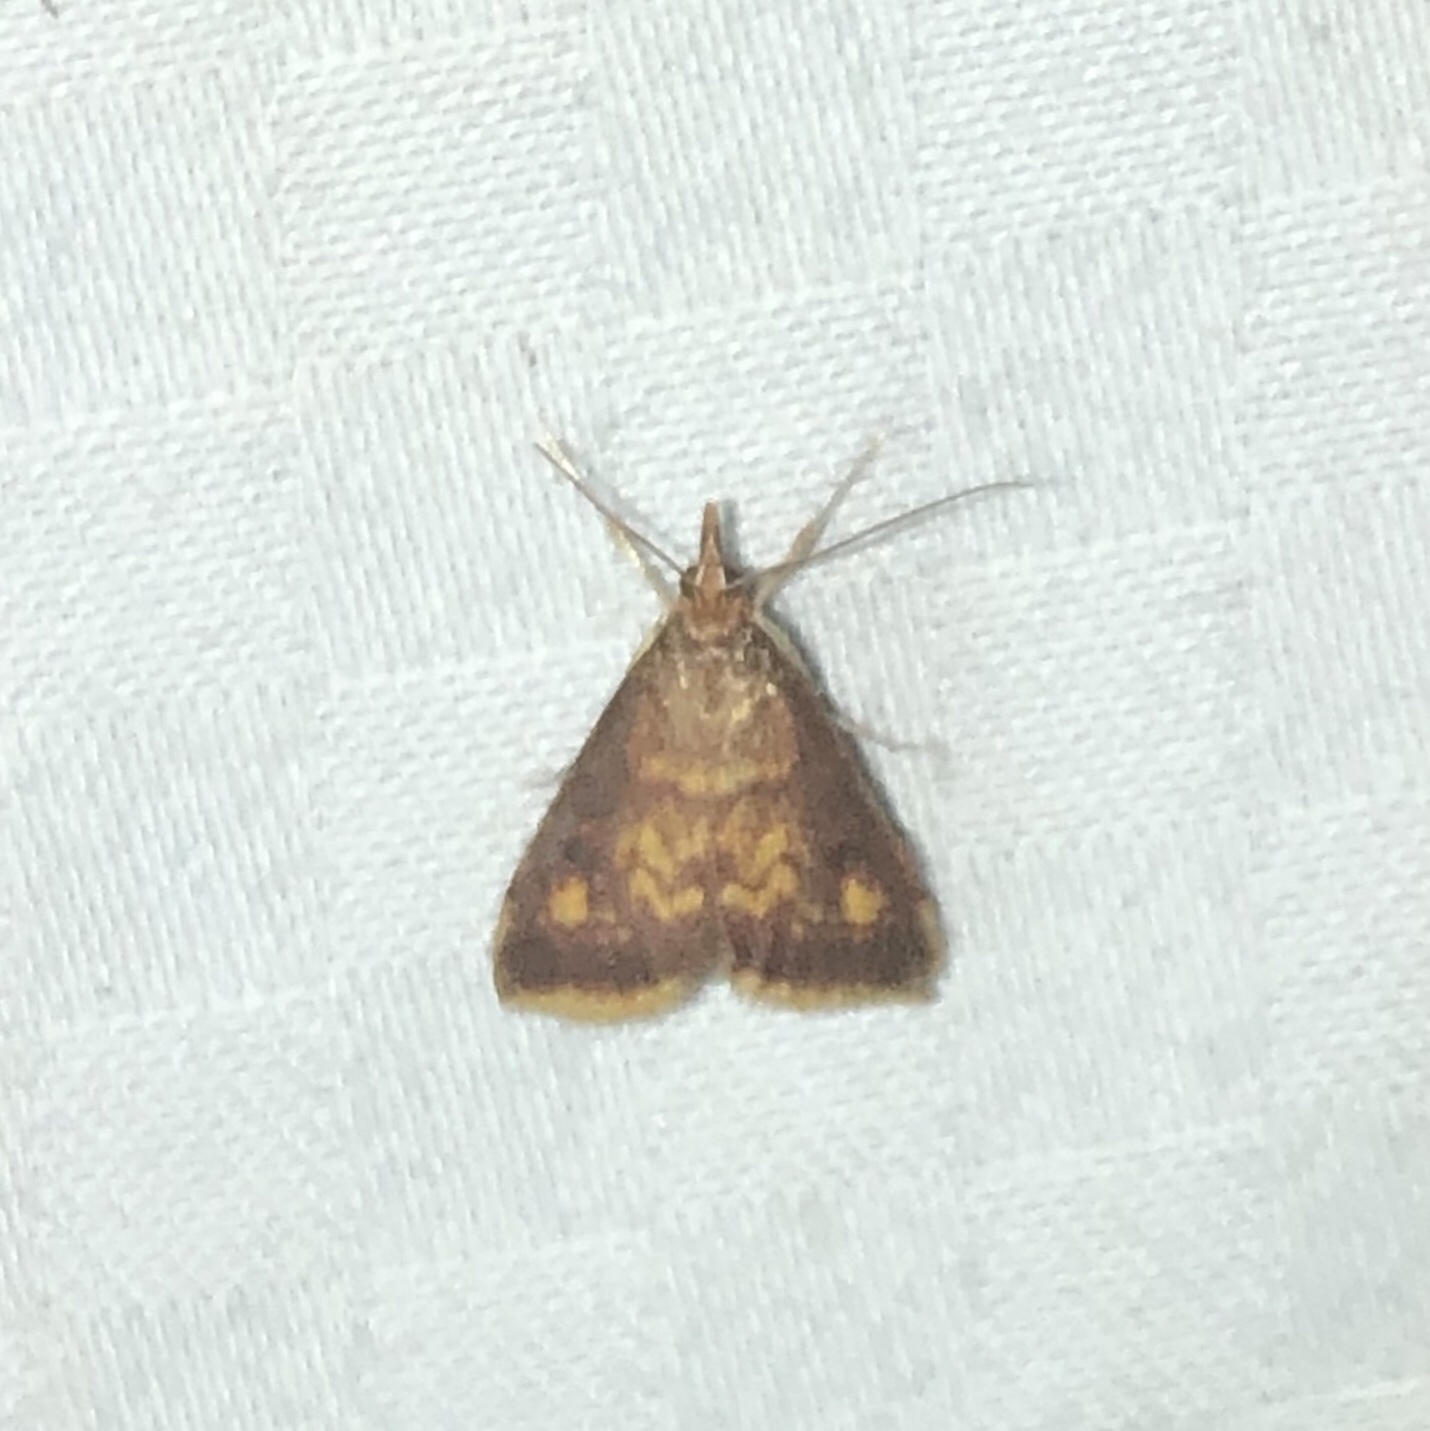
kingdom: Animalia
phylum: Arthropoda
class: Insecta
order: Lepidoptera
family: Crambidae
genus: Pyrausta
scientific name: Pyrausta acrionalis
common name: Mint-loving pyrausta moth
